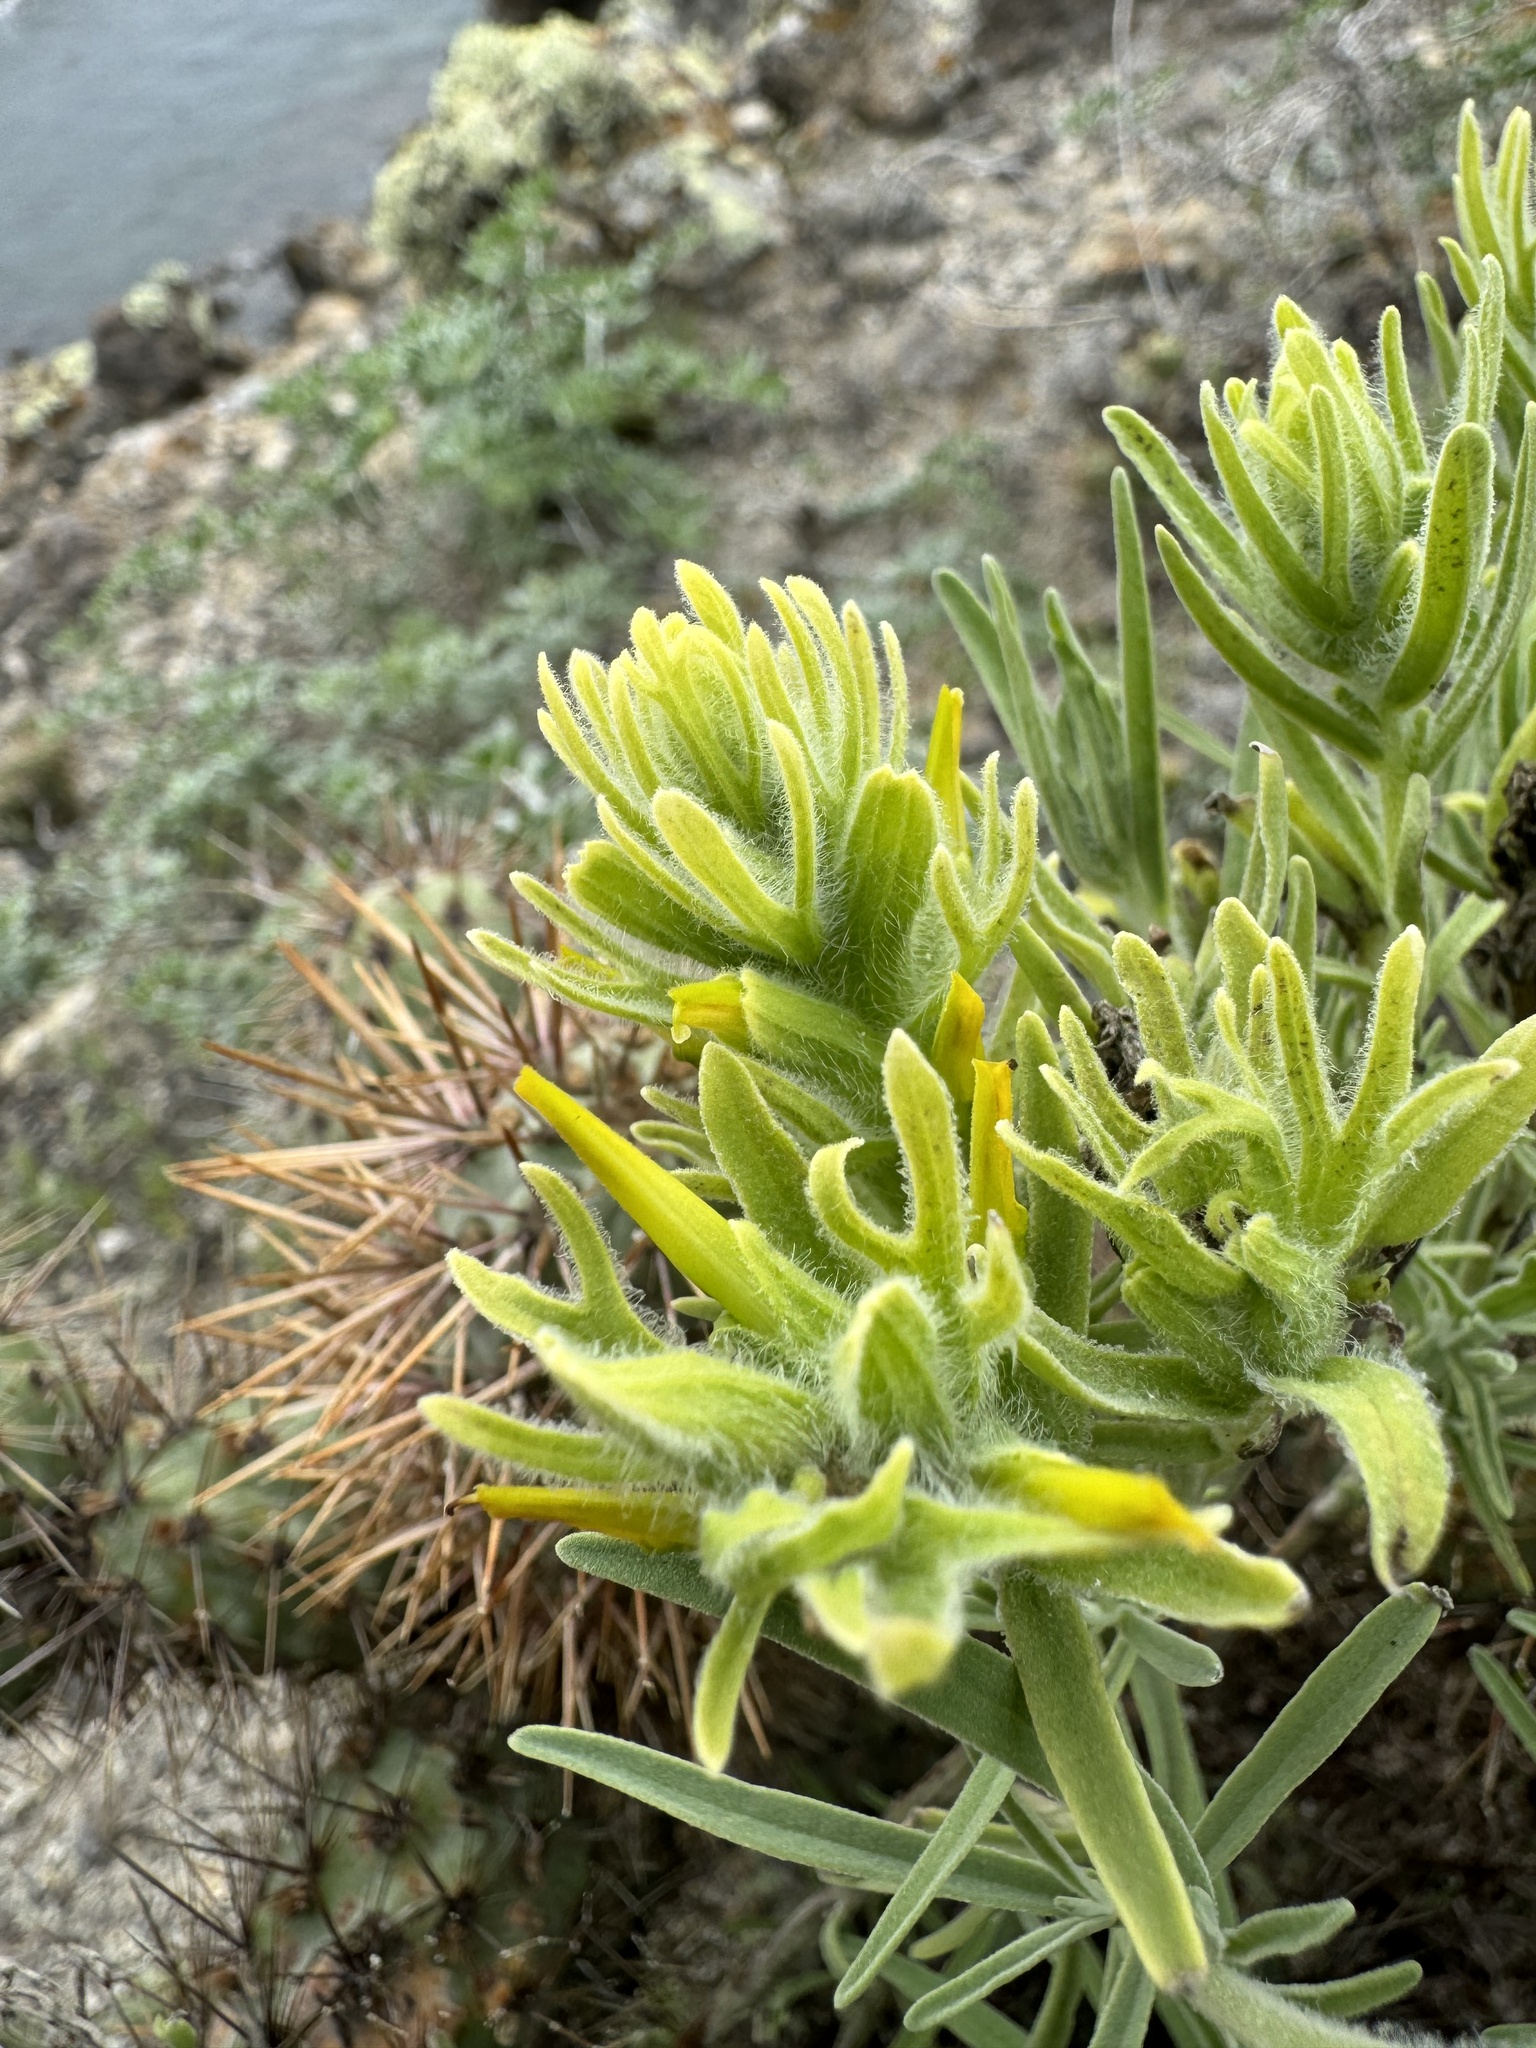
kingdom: Plantae
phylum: Tracheophyta
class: Magnoliopsida
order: Lamiales
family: Orobanchaceae
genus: Castilleja
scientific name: Castilleja grisea
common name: San clemente island indian paintbrush
